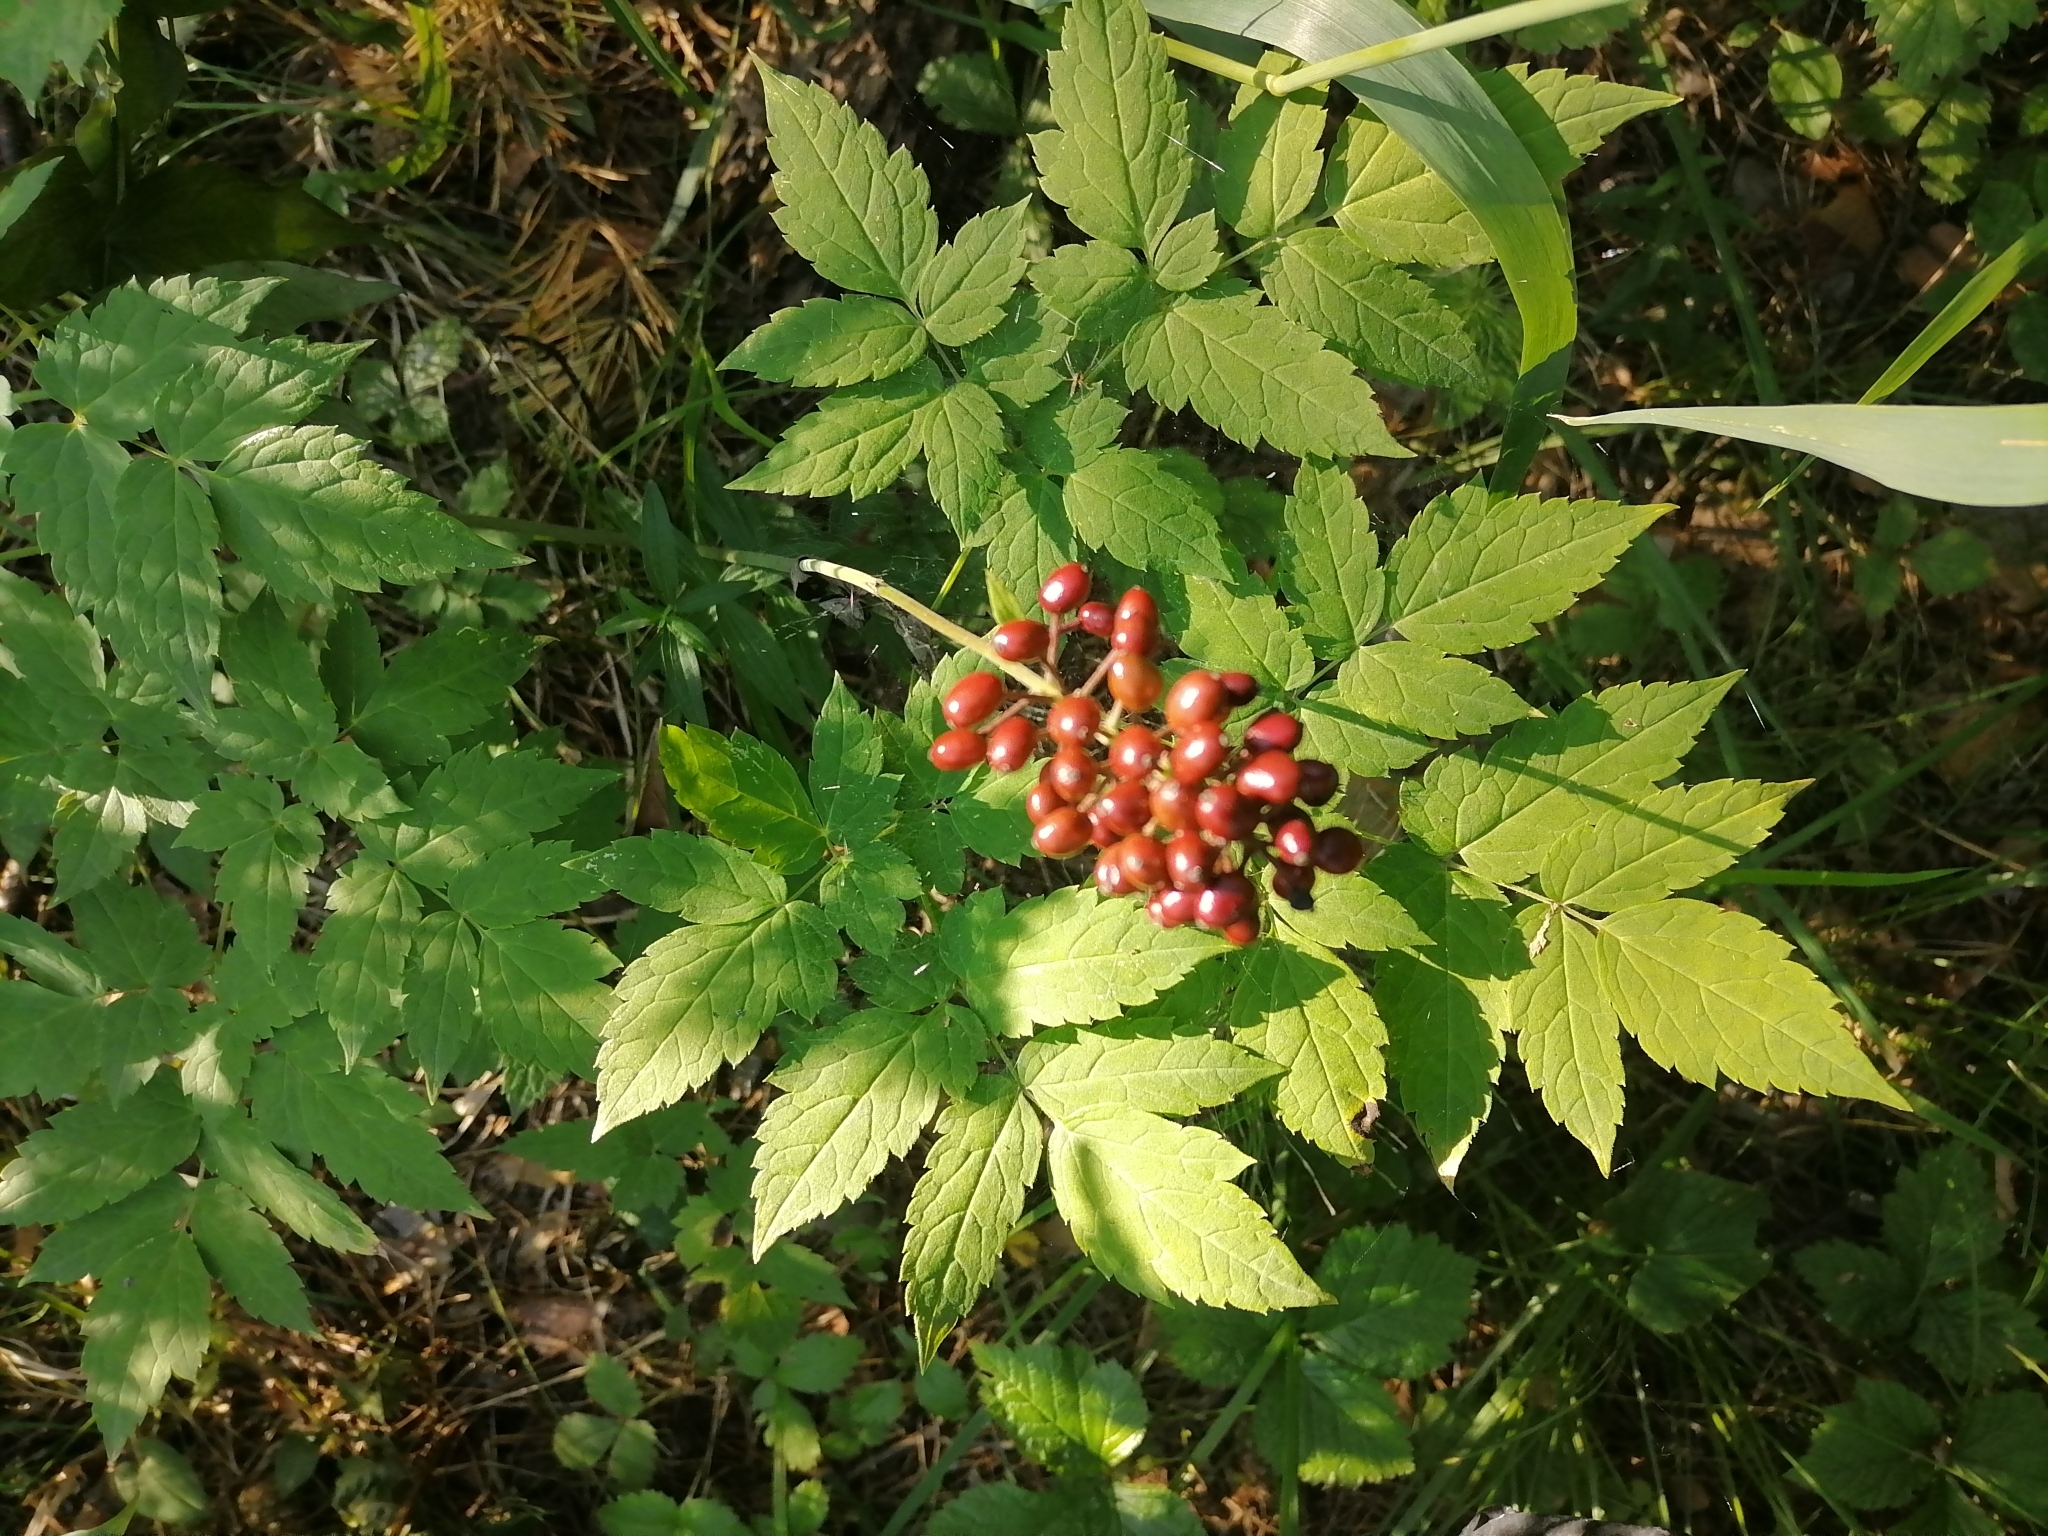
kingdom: Plantae
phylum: Tracheophyta
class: Magnoliopsida
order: Ranunculales
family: Ranunculaceae
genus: Actaea
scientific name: Actaea erythrocarpa
